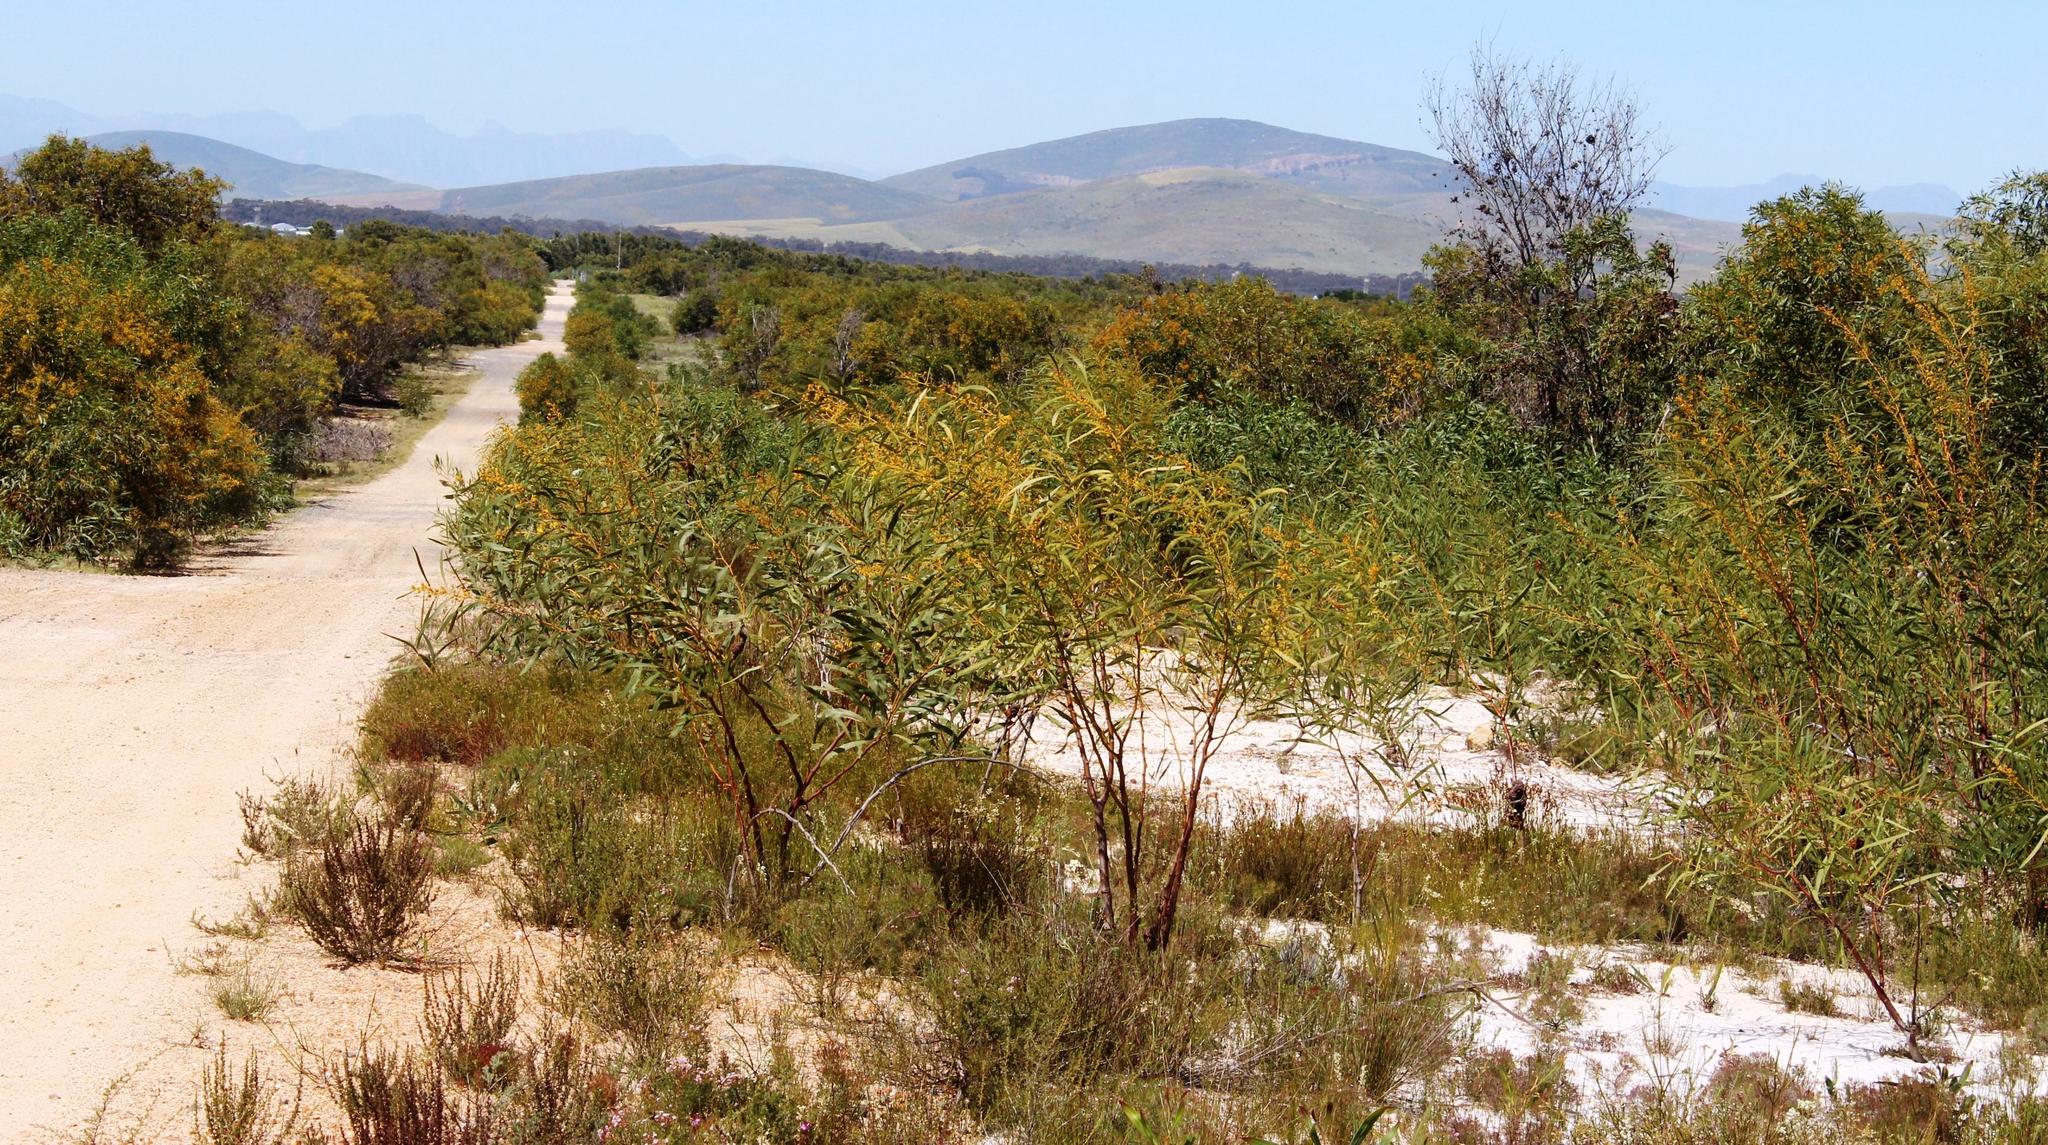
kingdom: Plantae
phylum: Tracheophyta
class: Magnoliopsida
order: Fabales
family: Fabaceae
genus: Acacia
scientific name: Acacia saligna
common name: Orange wattle
